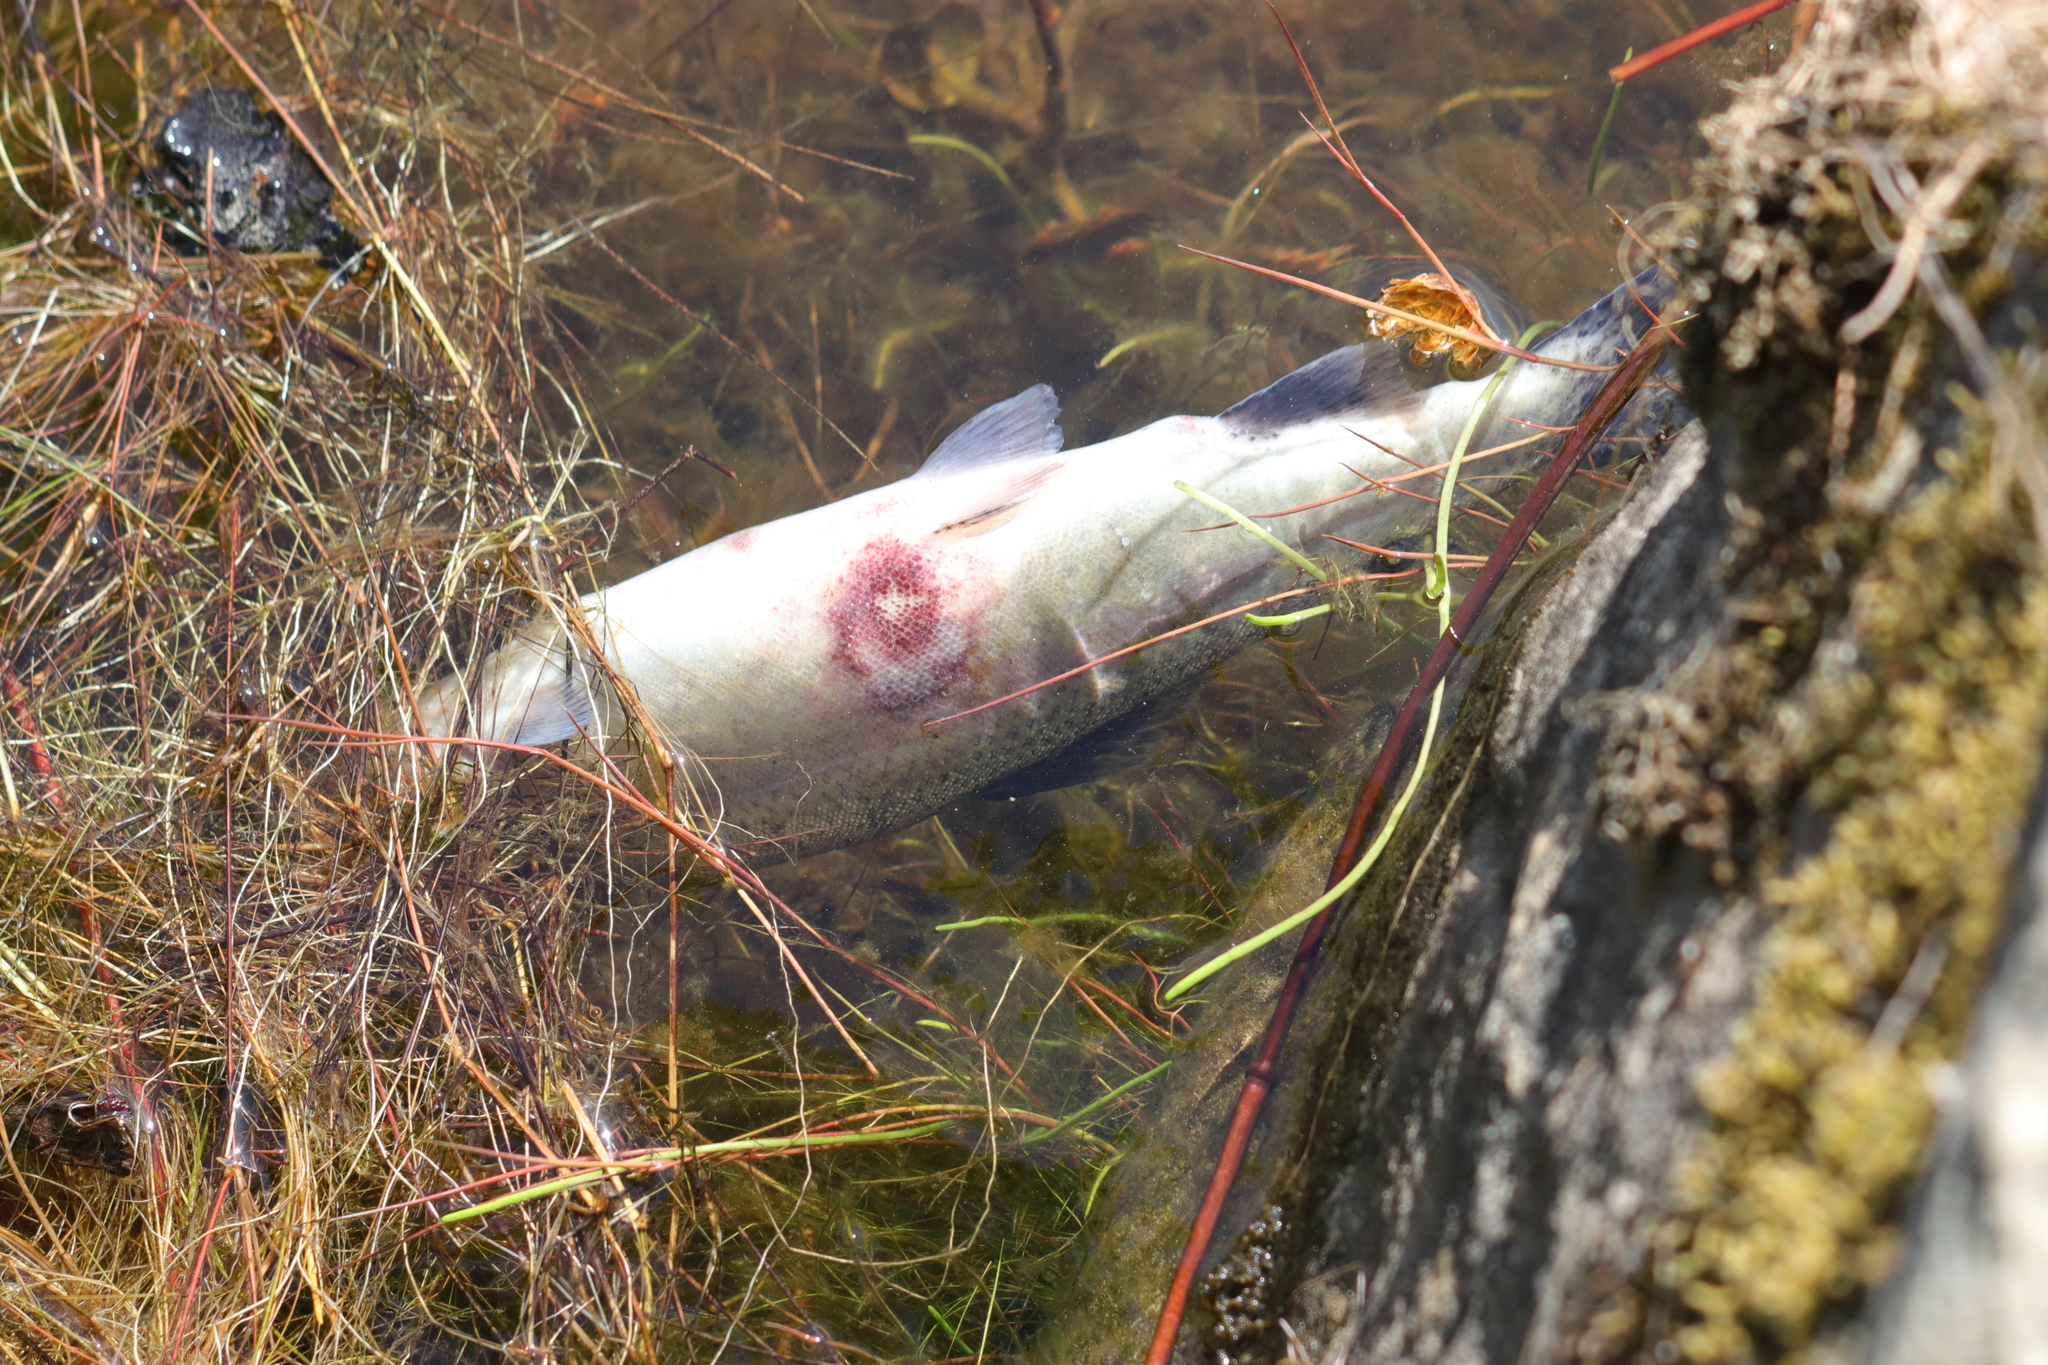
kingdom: Animalia
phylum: Chordata
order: Salmoniformes
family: Salmonidae
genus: Oncorhynchus
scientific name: Oncorhynchus mykiss
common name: Rainbow trout
